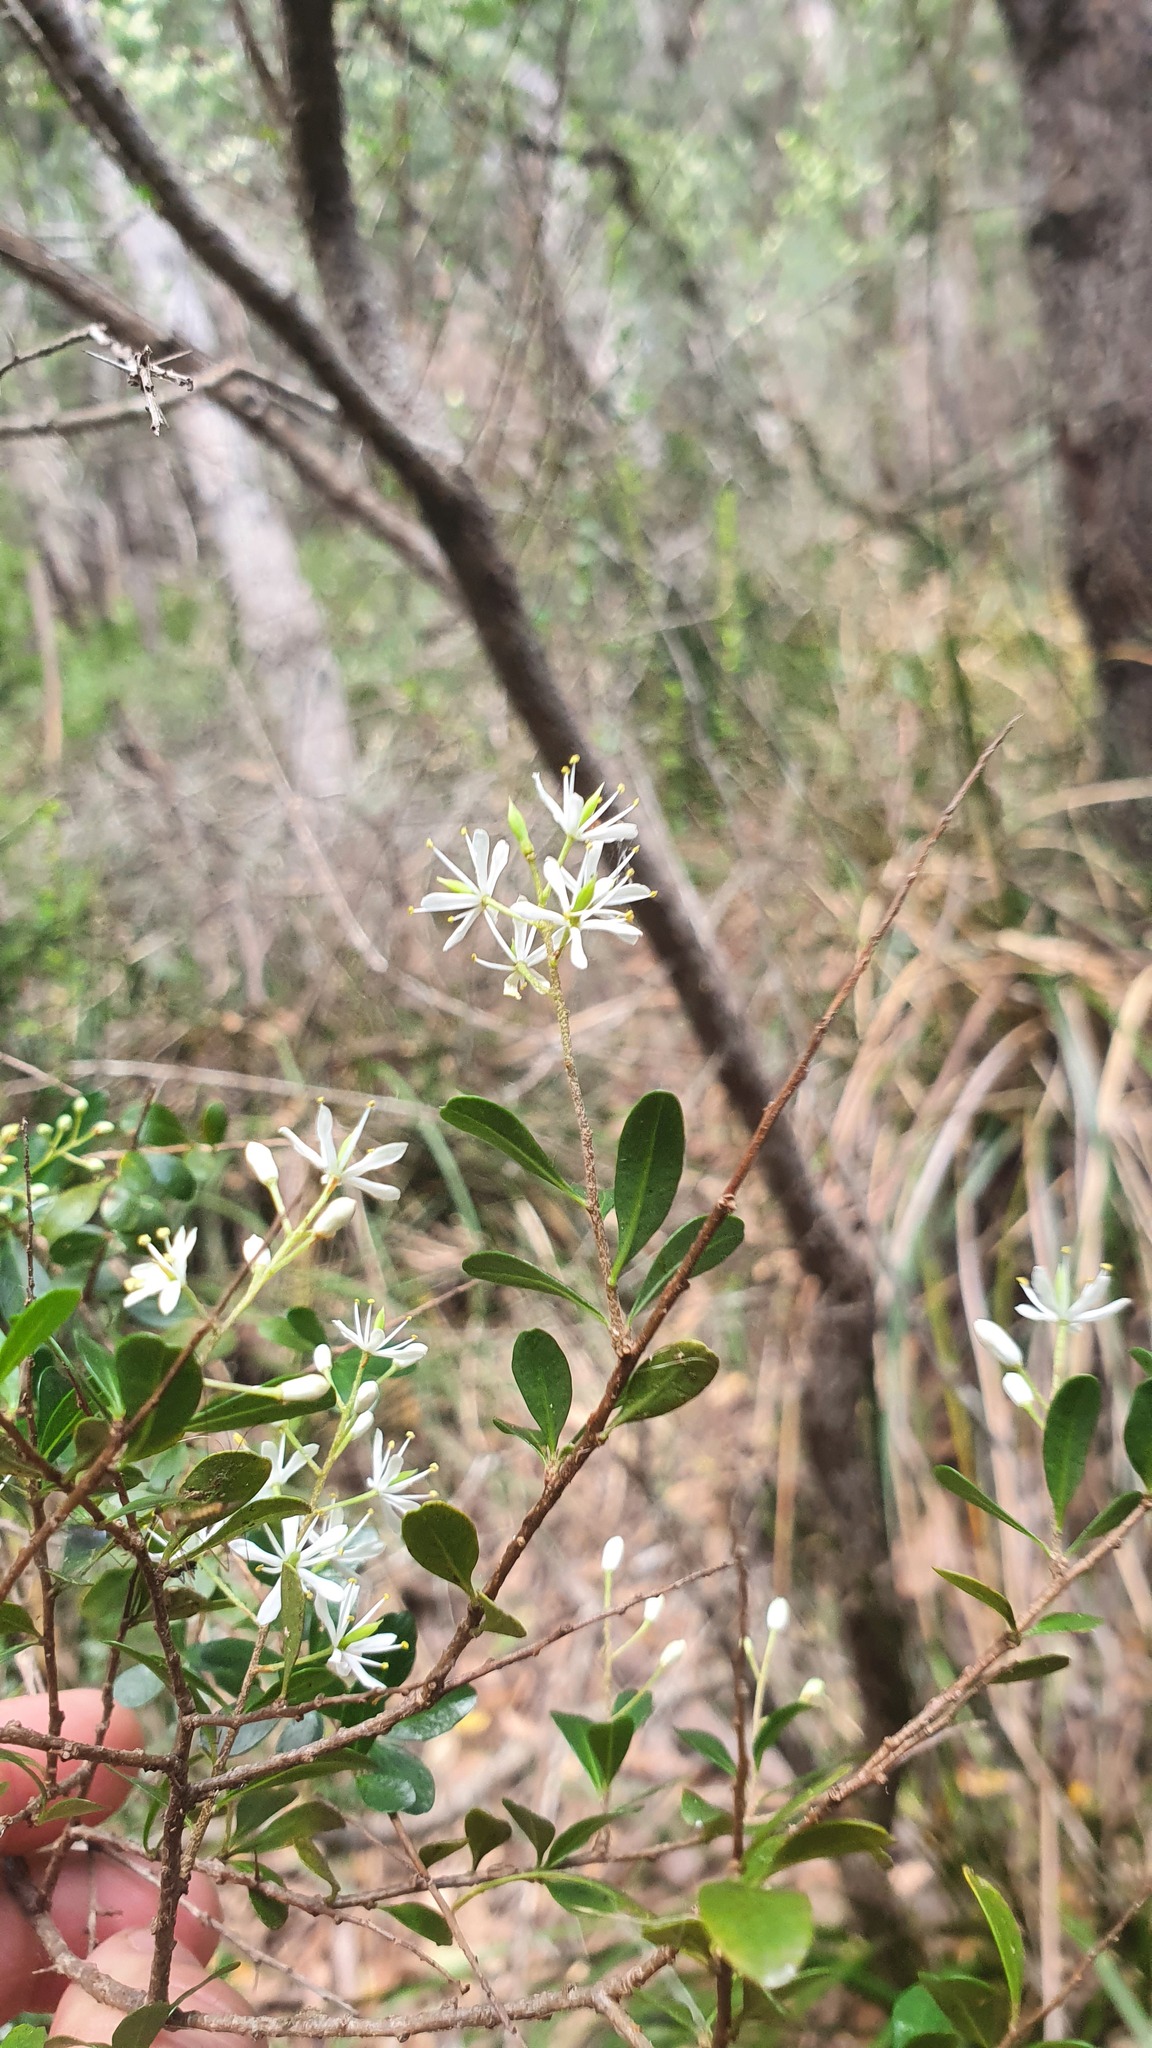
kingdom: Plantae
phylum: Tracheophyta
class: Magnoliopsida
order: Apiales
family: Pittosporaceae
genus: Bursaria
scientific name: Bursaria spinosa
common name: Australian blackthorn
